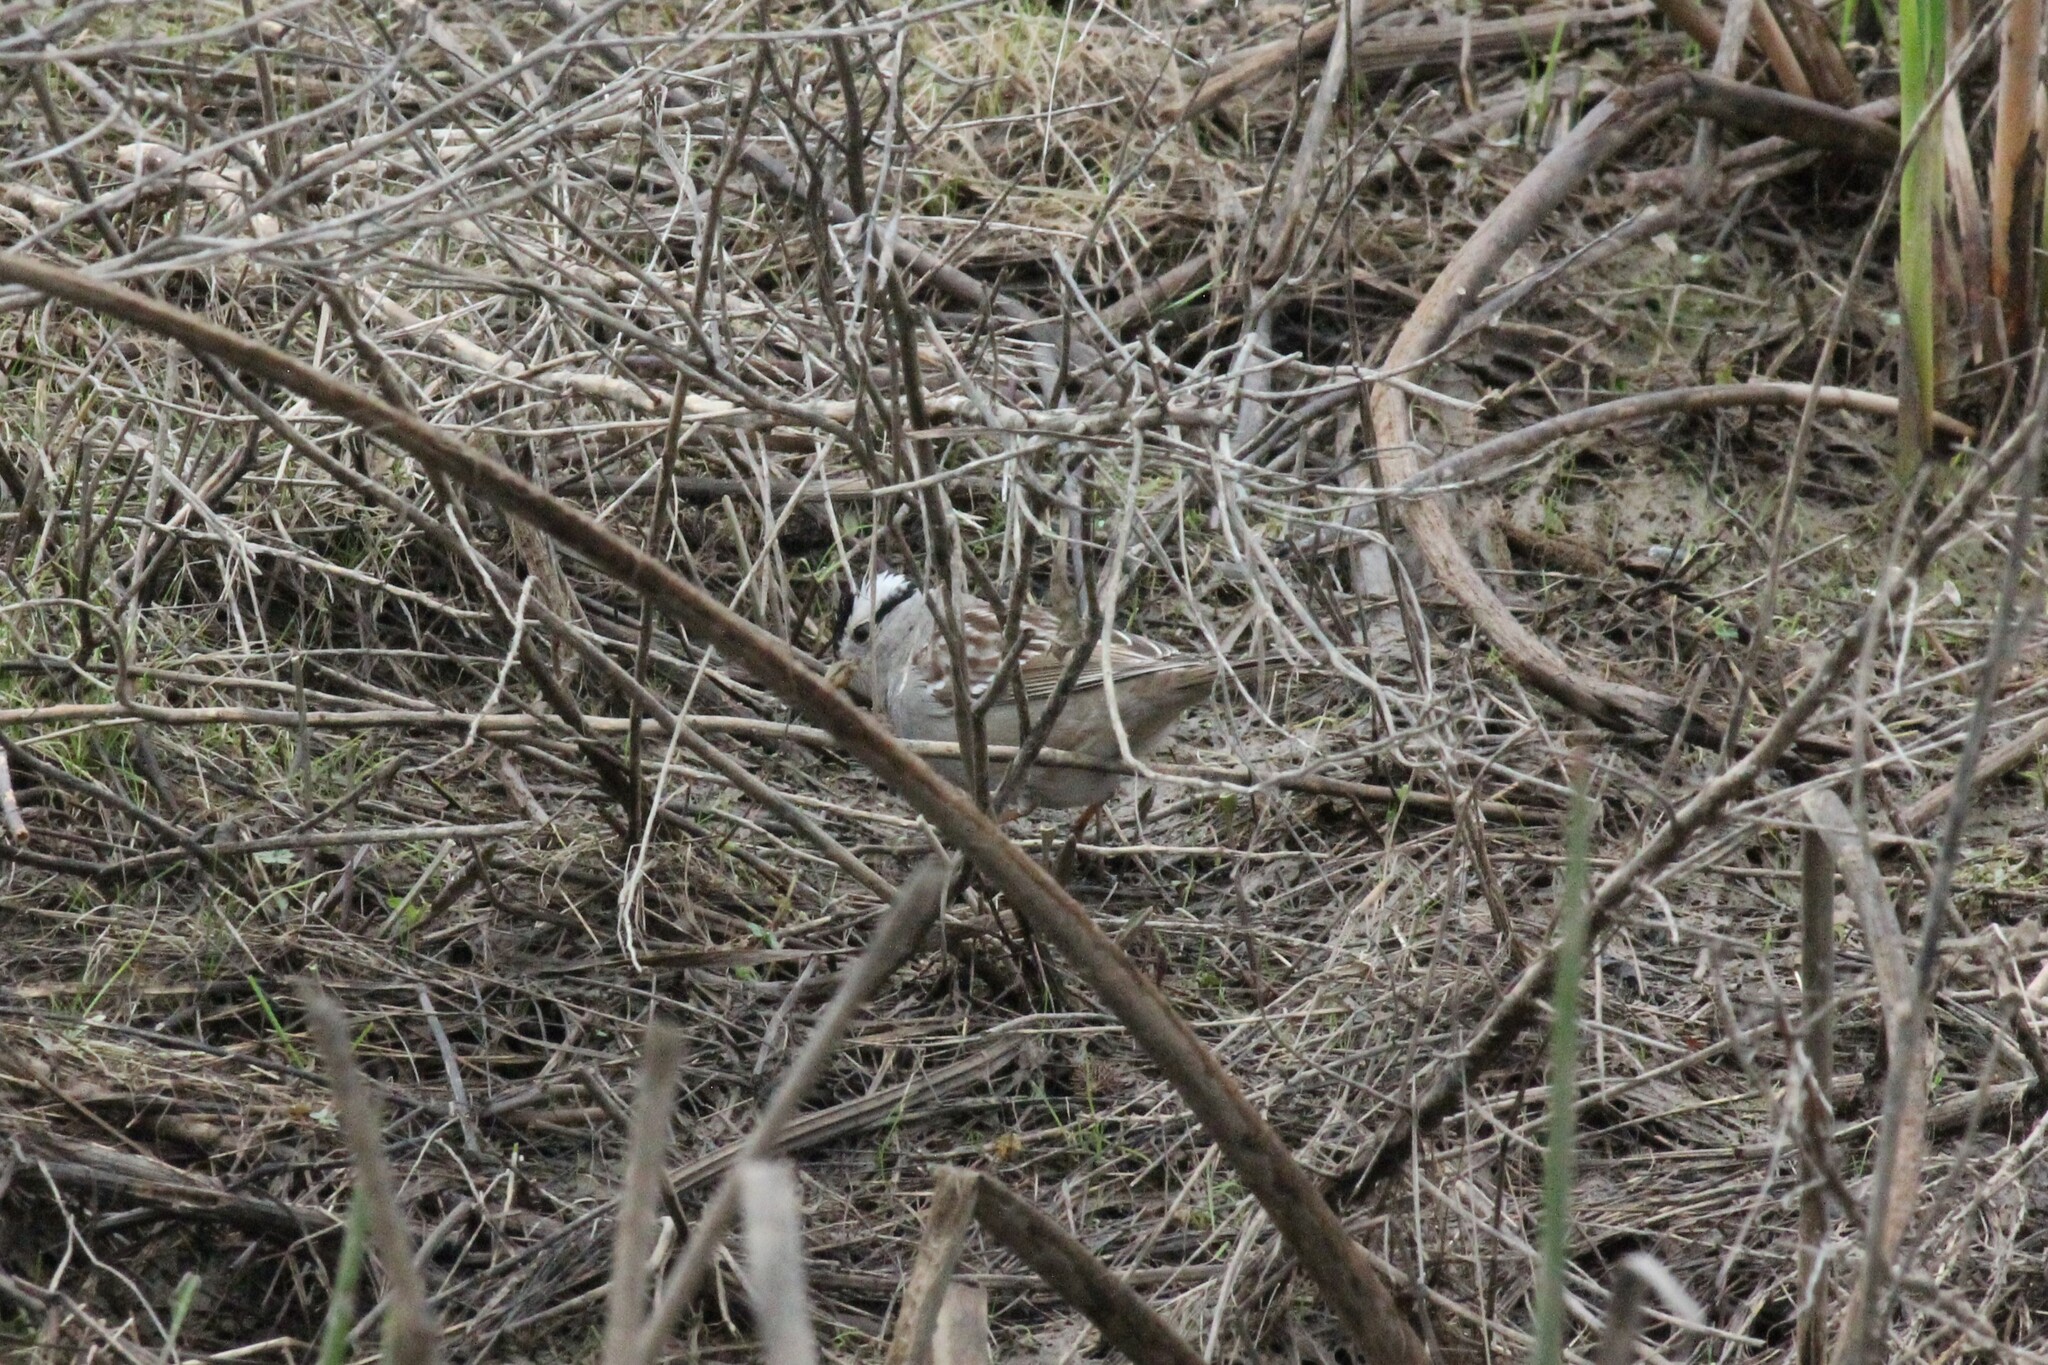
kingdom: Animalia
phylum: Chordata
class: Aves
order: Passeriformes
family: Passerellidae
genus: Zonotrichia
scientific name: Zonotrichia leucophrys
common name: White-crowned sparrow
